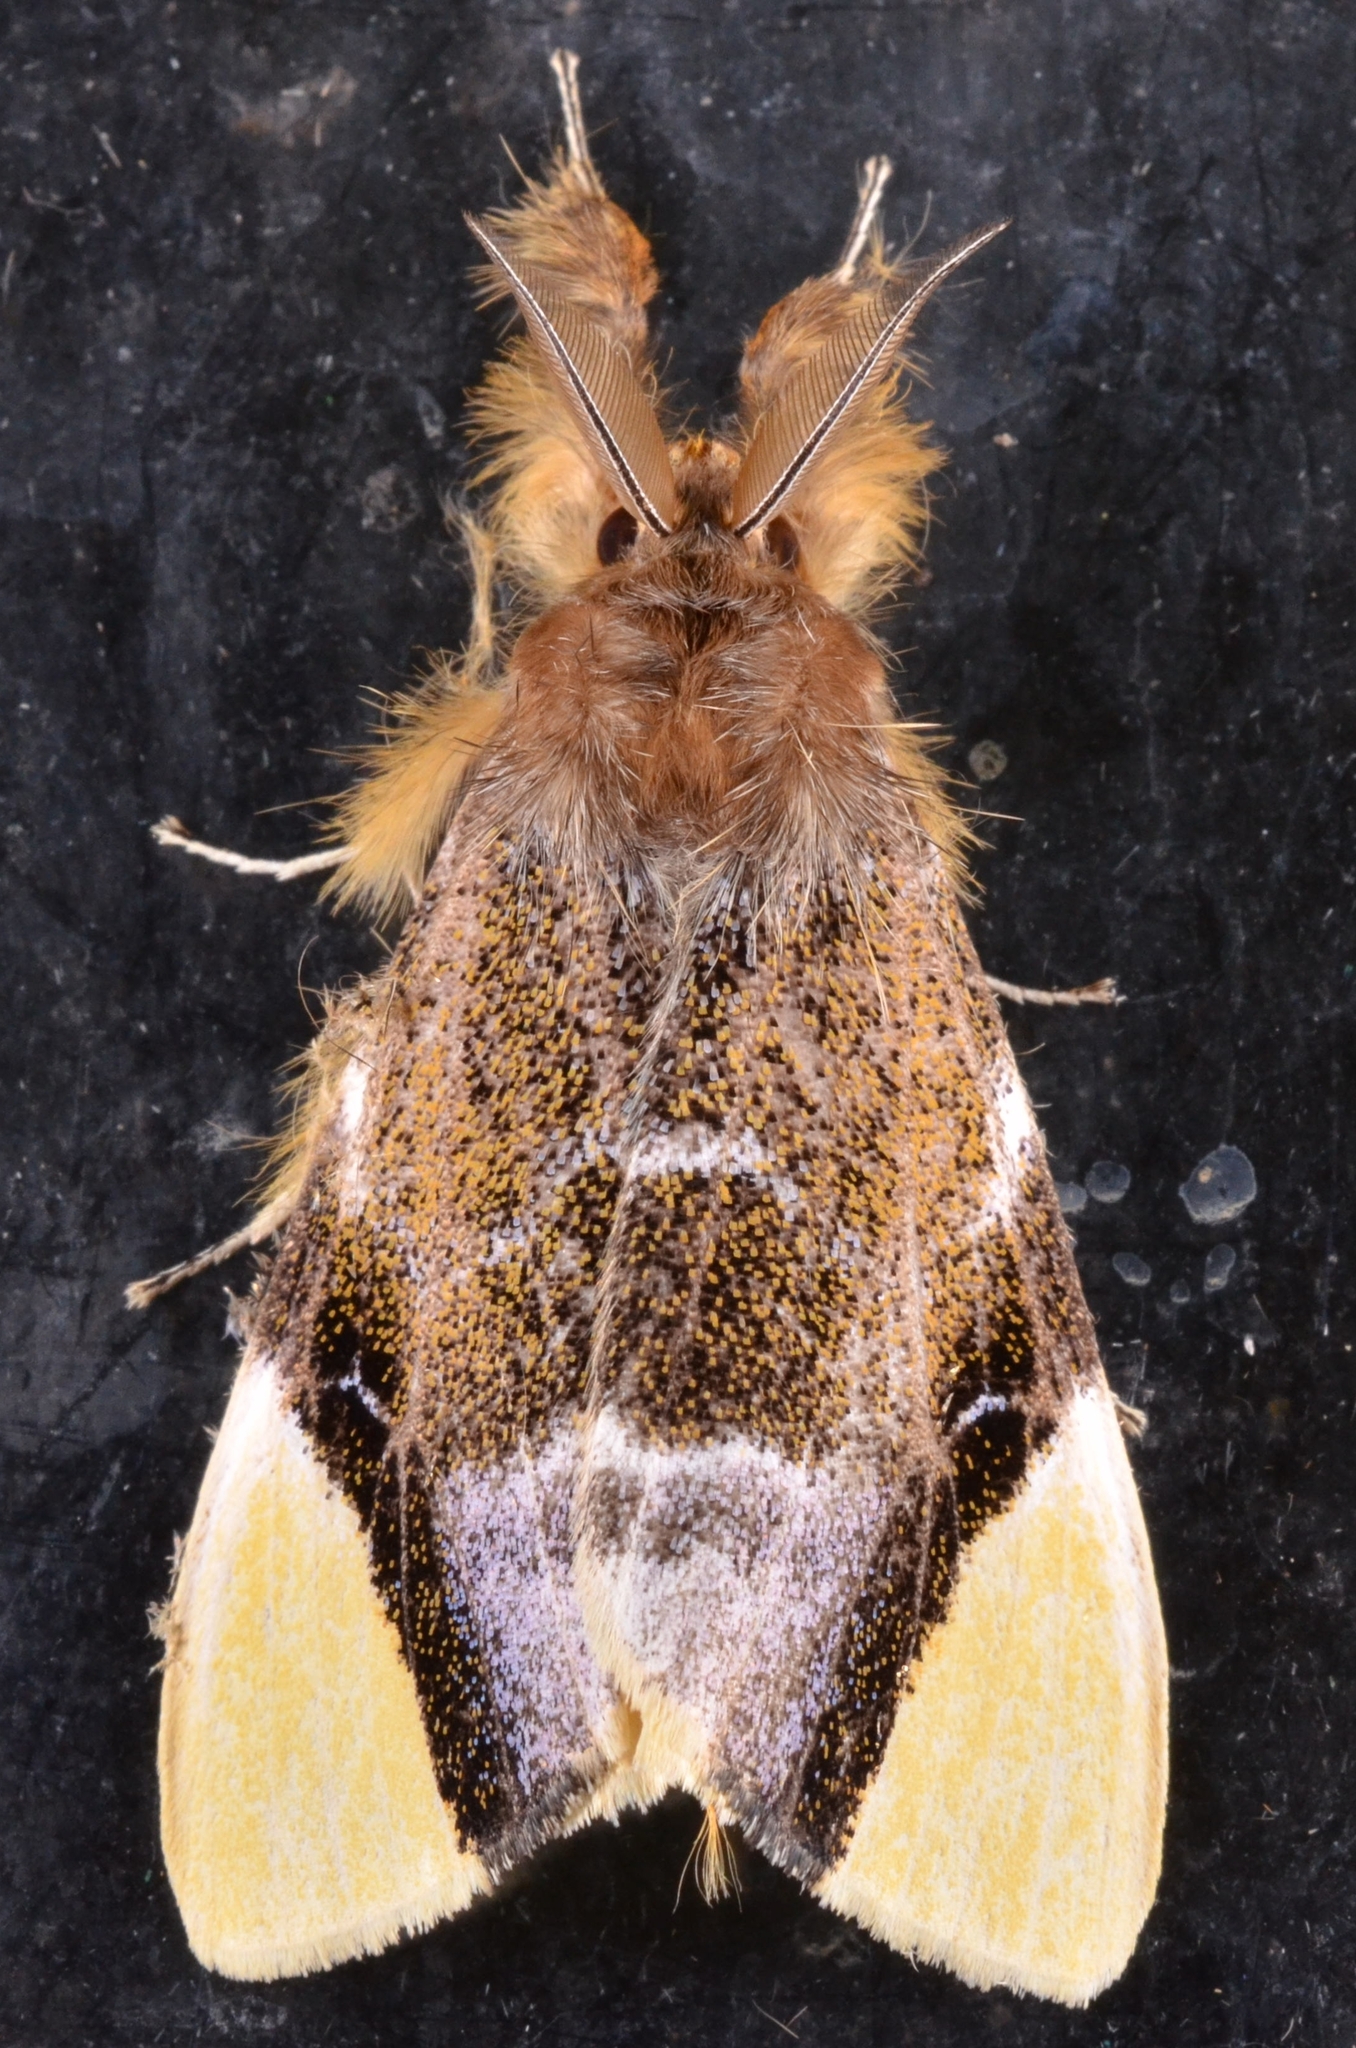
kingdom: Animalia
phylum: Arthropoda
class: Insecta
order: Lepidoptera
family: Erebidae
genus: Pida
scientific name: Pida apicalis
